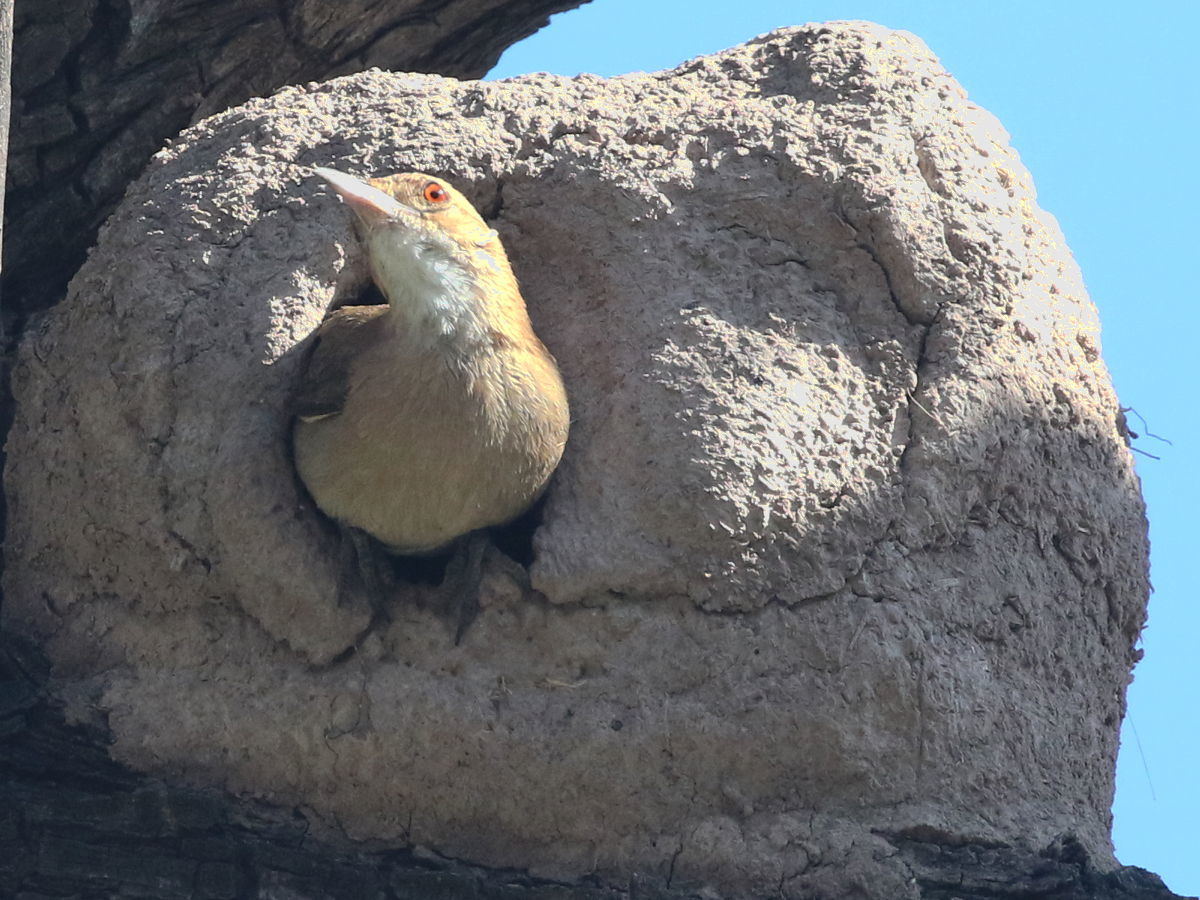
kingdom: Animalia
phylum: Chordata
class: Aves
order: Passeriformes
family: Furnariidae
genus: Furnarius
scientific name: Furnarius rufus
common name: Rufous hornero
